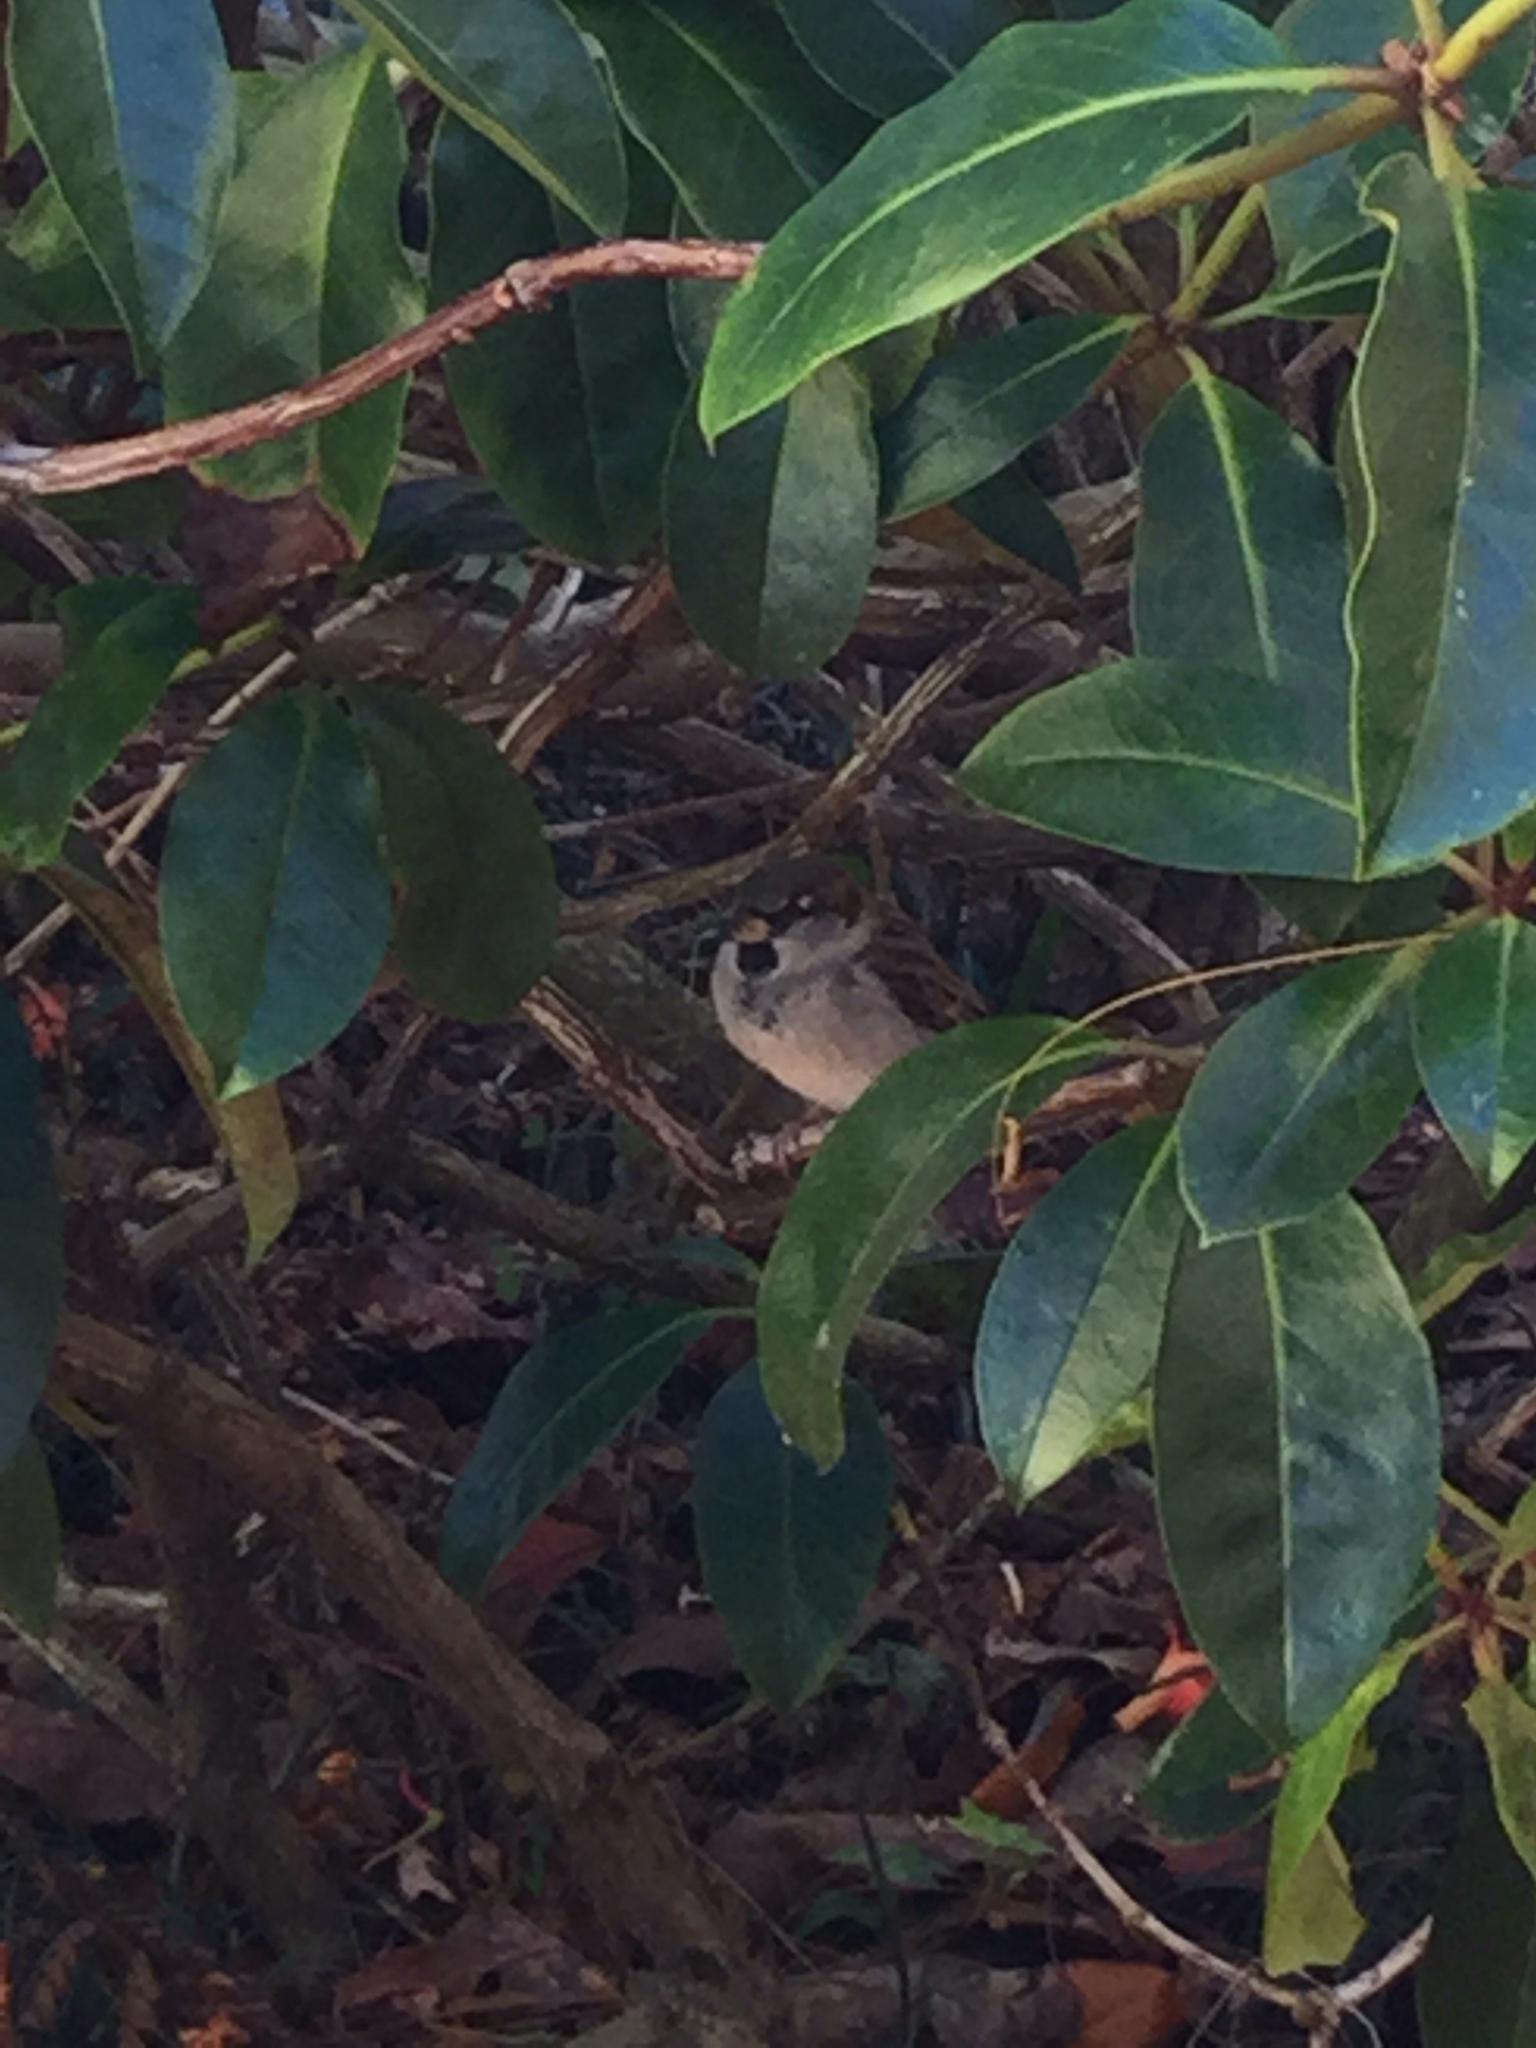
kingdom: Animalia
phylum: Chordata
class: Aves
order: Passeriformes
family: Passeridae
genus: Passer
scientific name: Passer domesticus
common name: House sparrow
